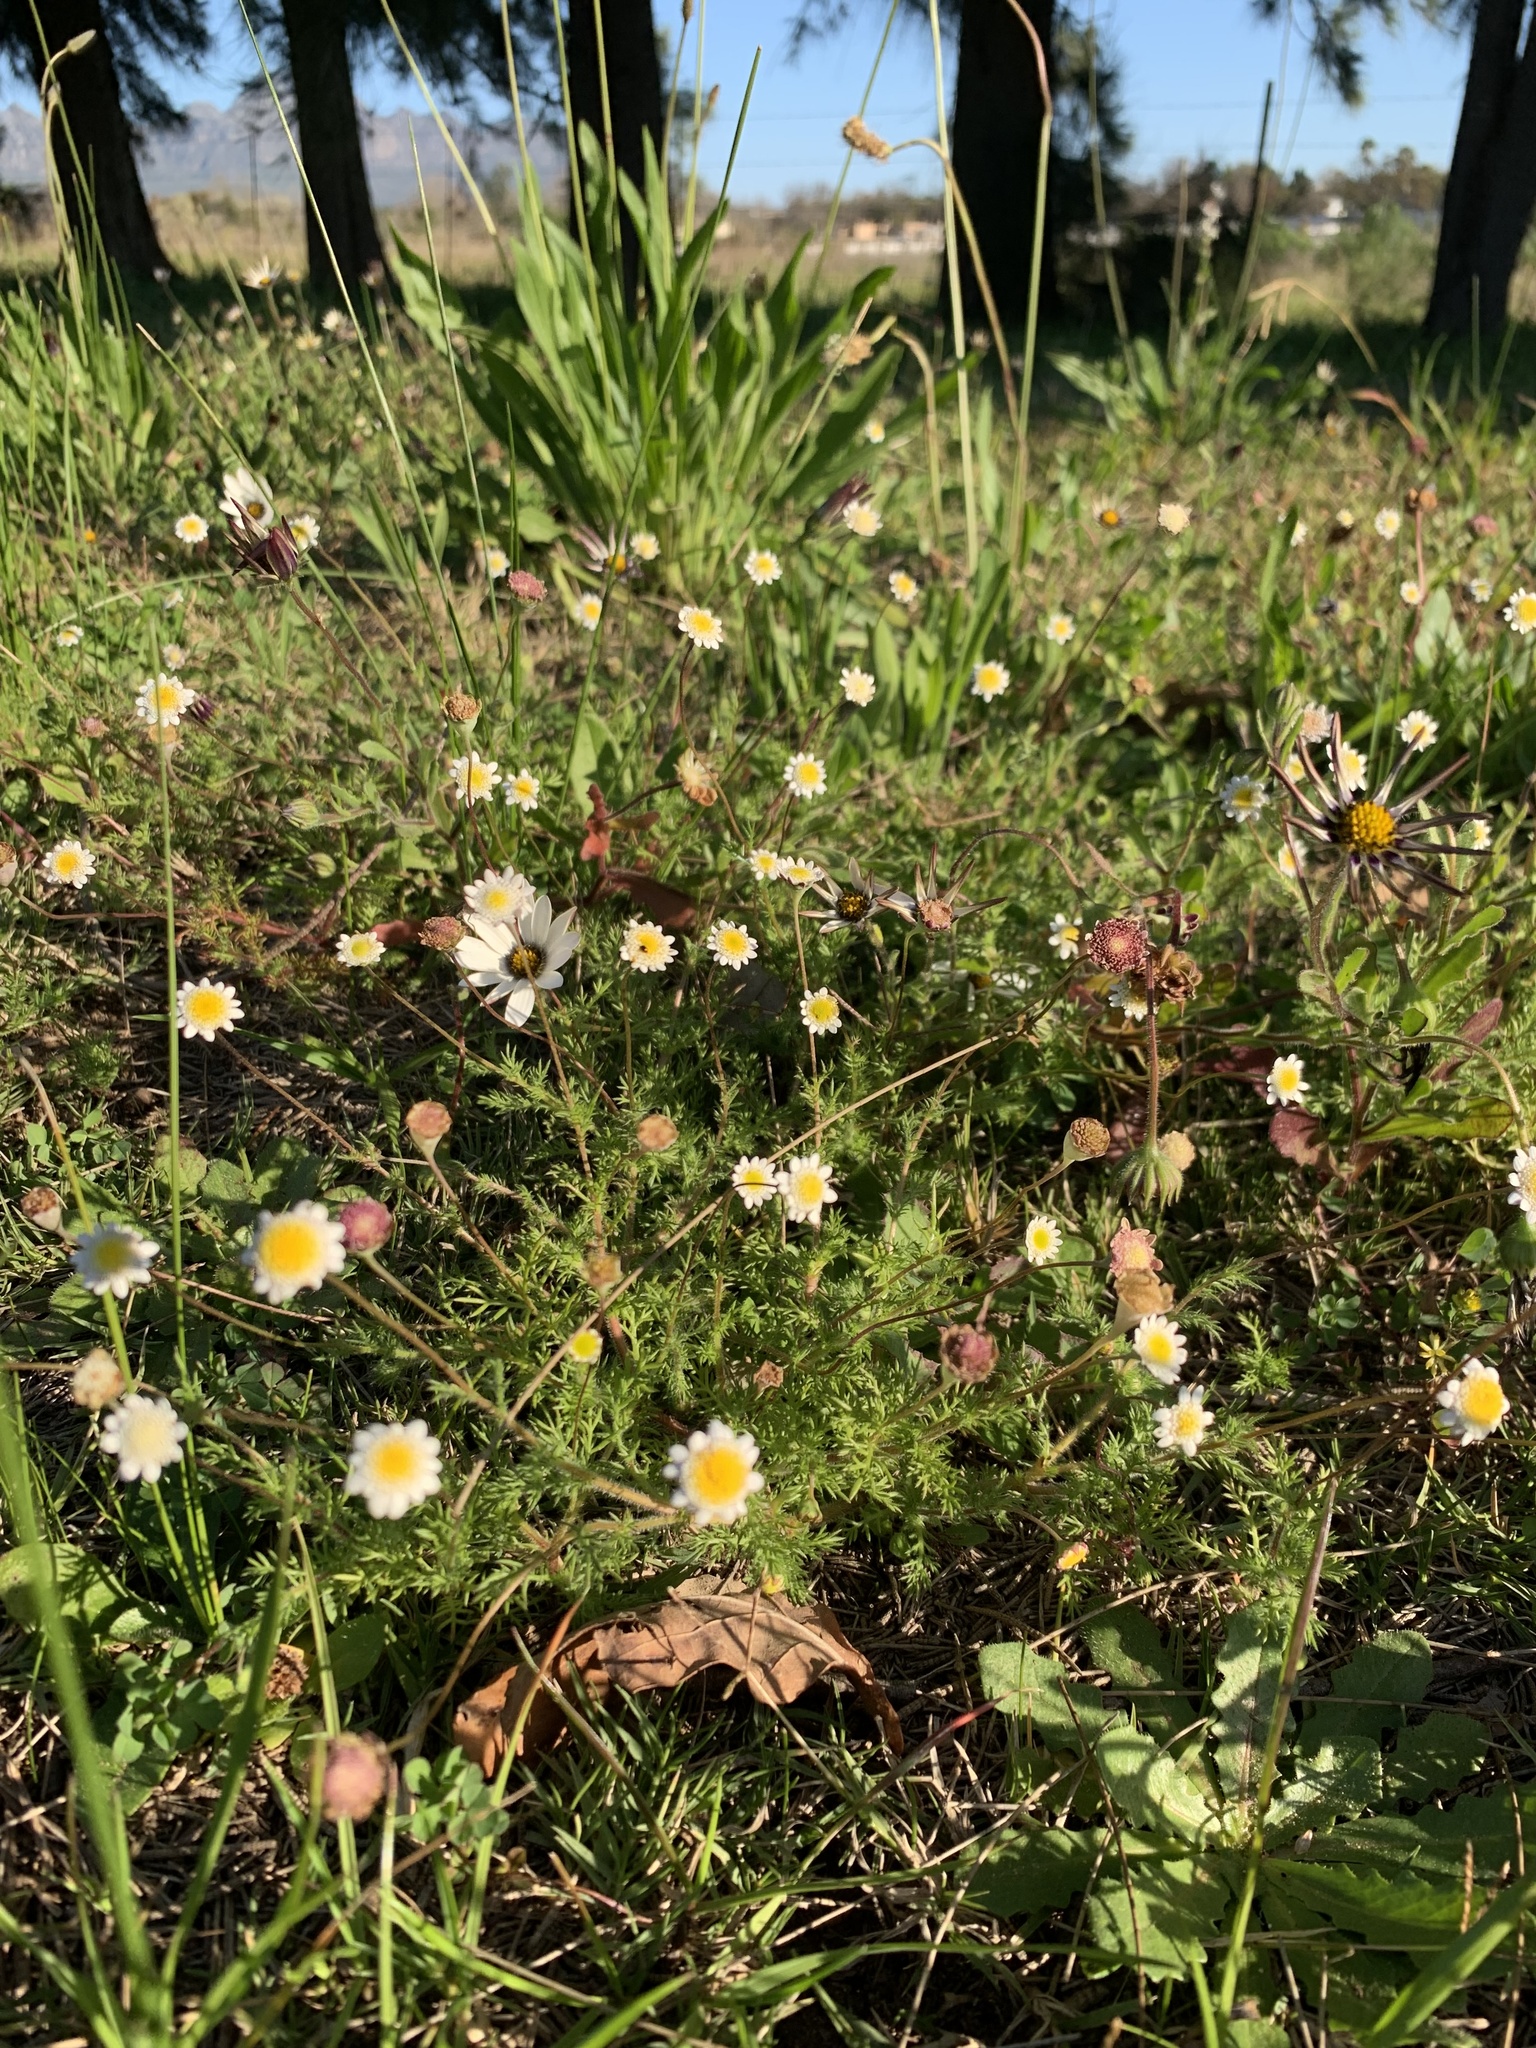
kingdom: Plantae
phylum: Tracheophyta
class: Magnoliopsida
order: Asterales
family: Asteraceae
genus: Cotula
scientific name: Cotula turbinata
